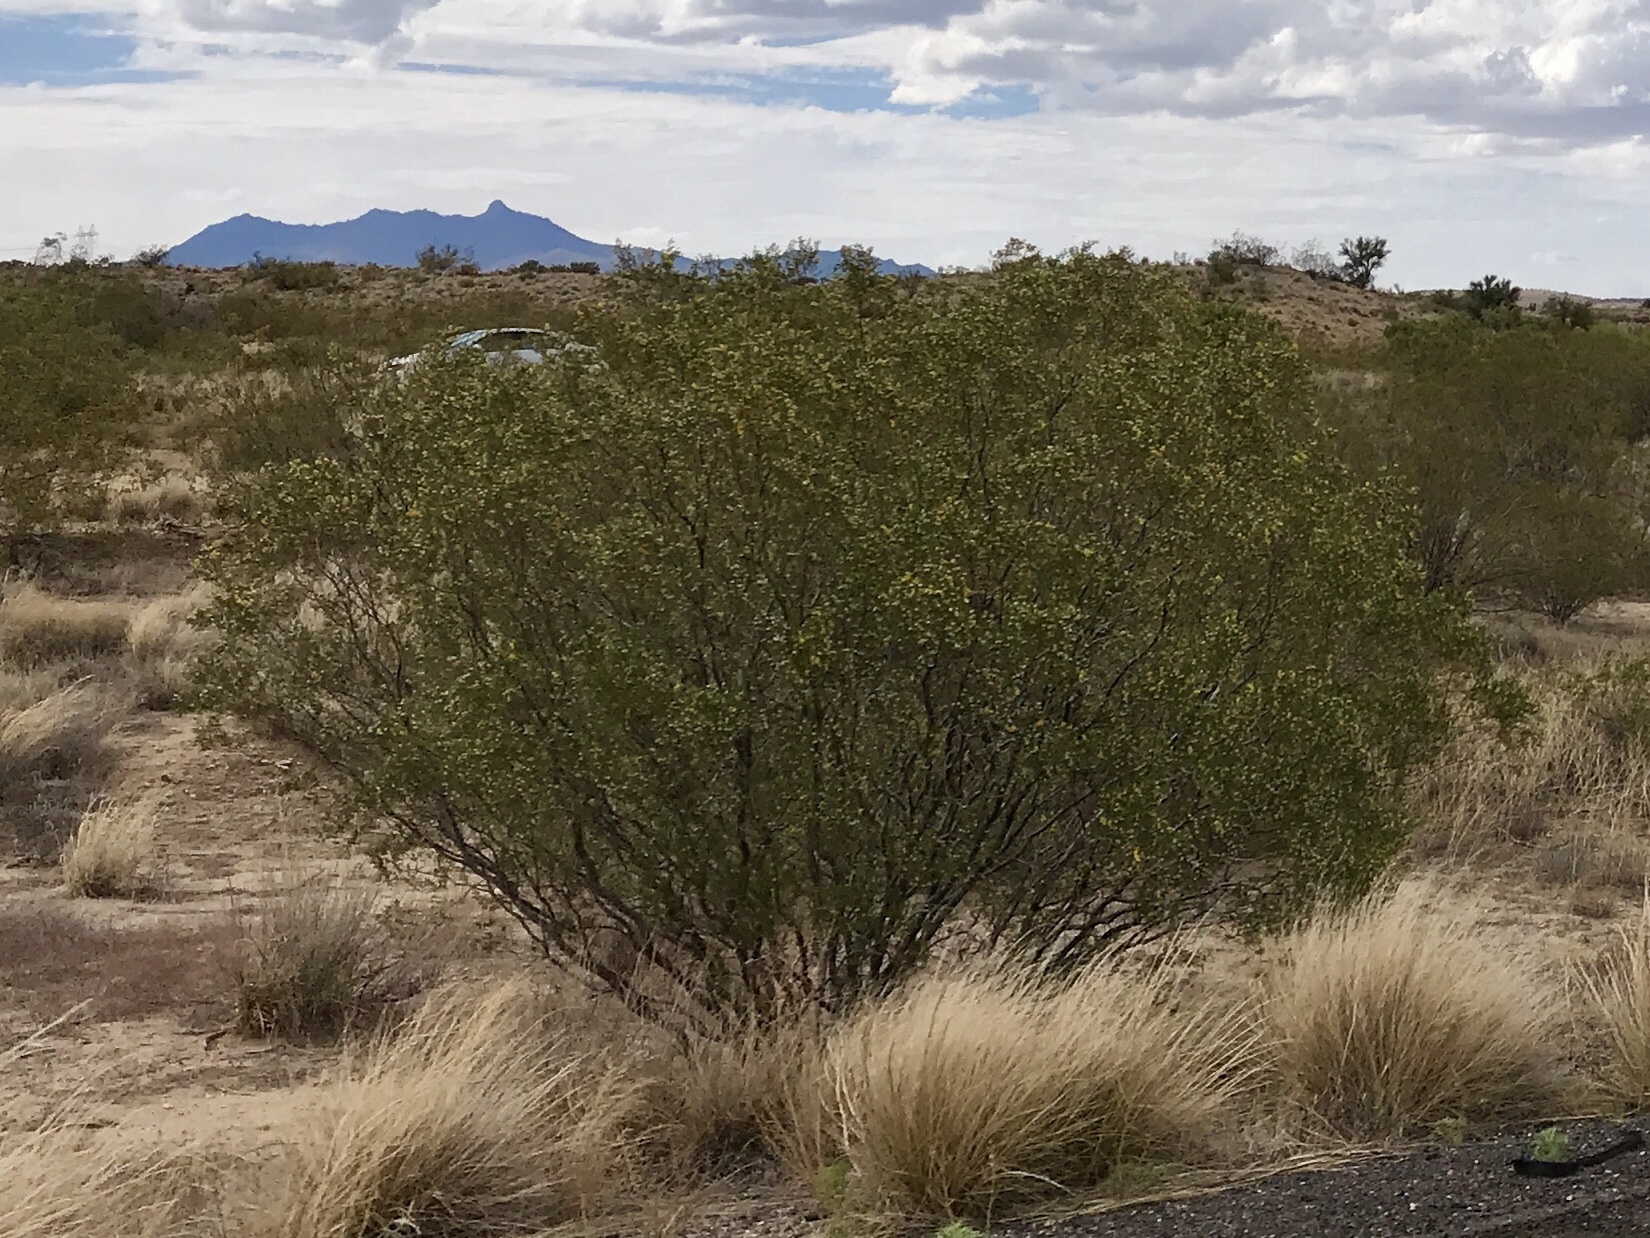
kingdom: Plantae
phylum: Tracheophyta
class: Magnoliopsida
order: Zygophyllales
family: Zygophyllaceae
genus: Larrea
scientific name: Larrea tridentata
